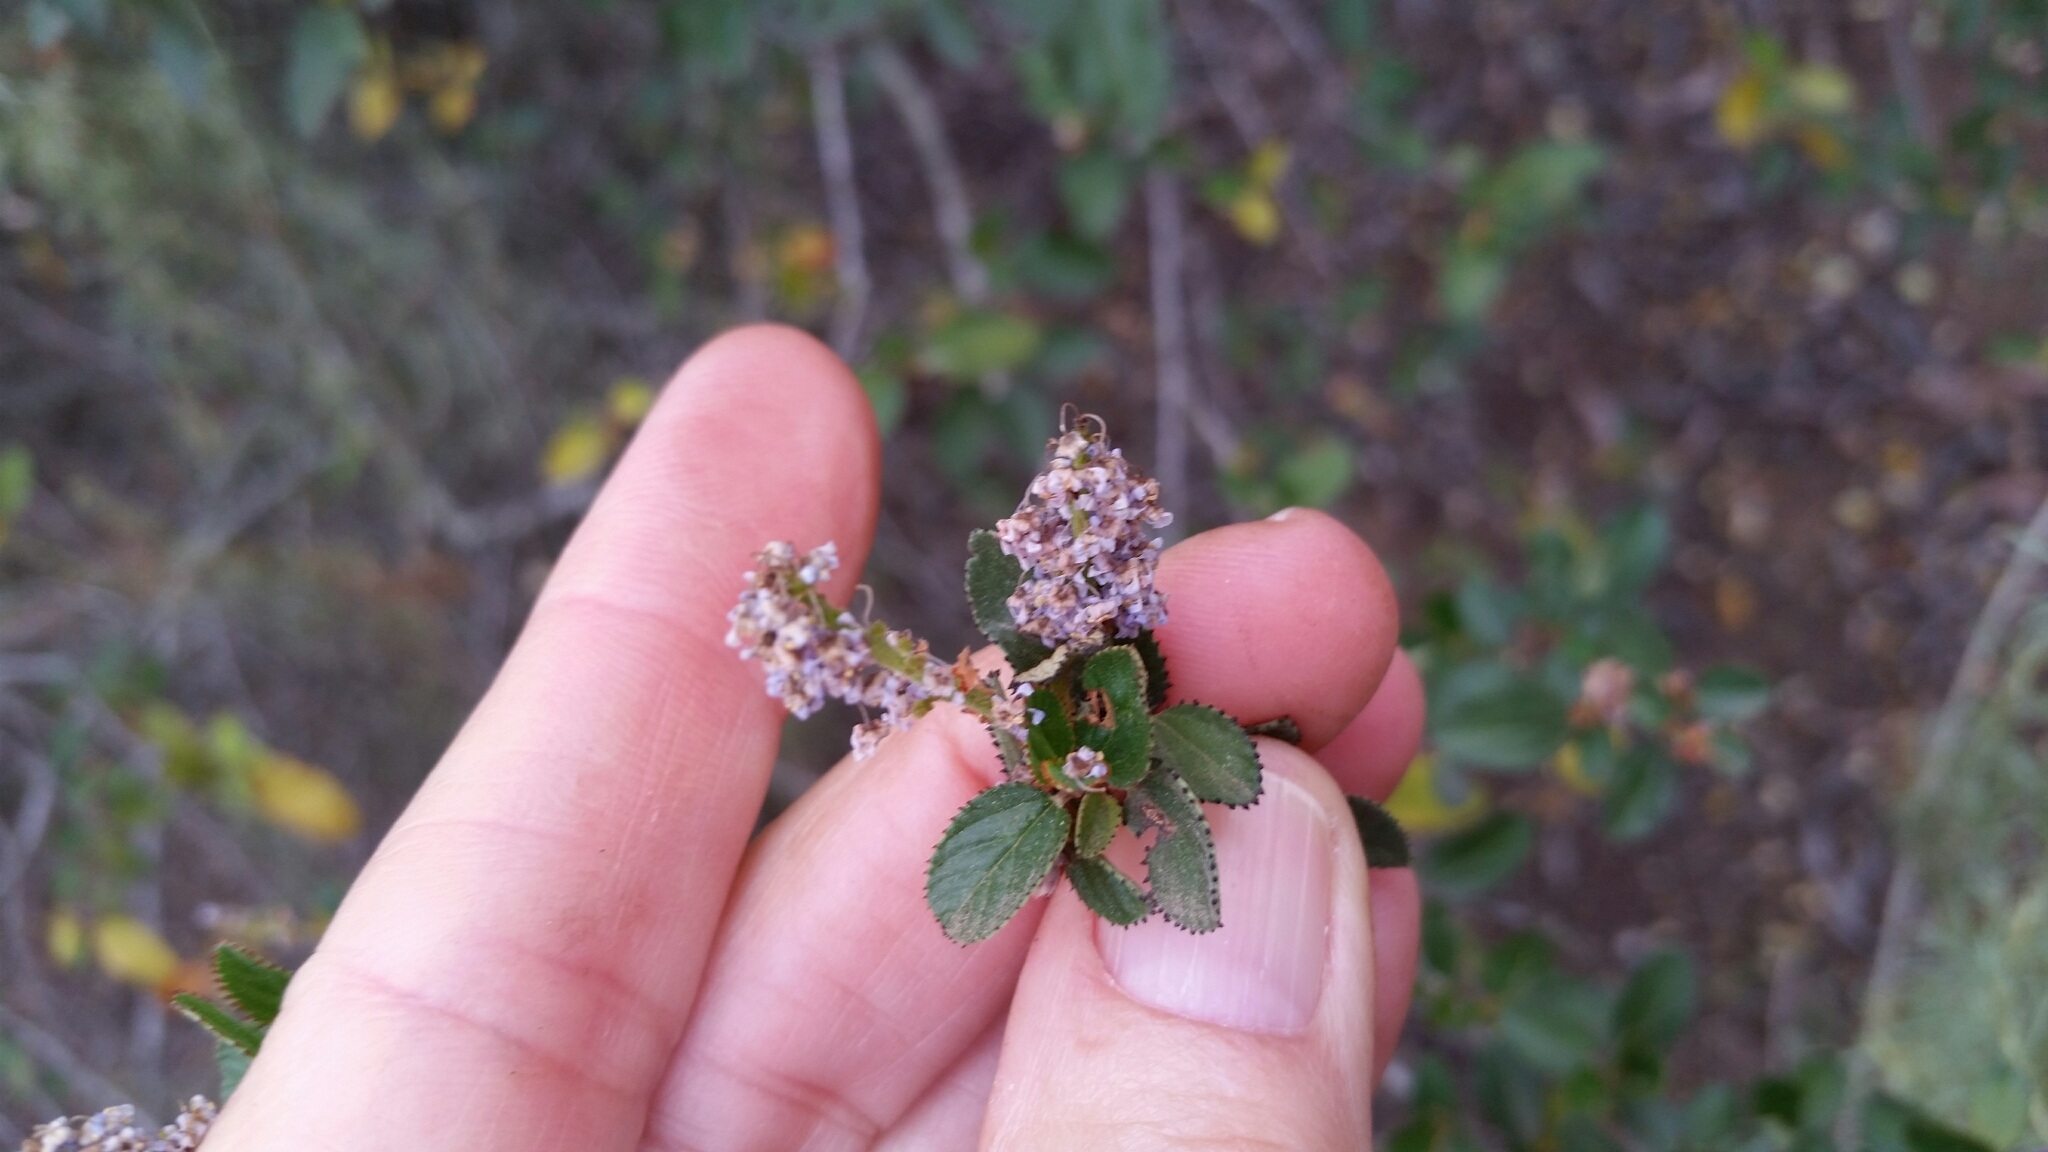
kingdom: Plantae
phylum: Tracheophyta
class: Magnoliopsida
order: Rosales
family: Rhamnaceae
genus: Ceanothus
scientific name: Ceanothus tomentosus
